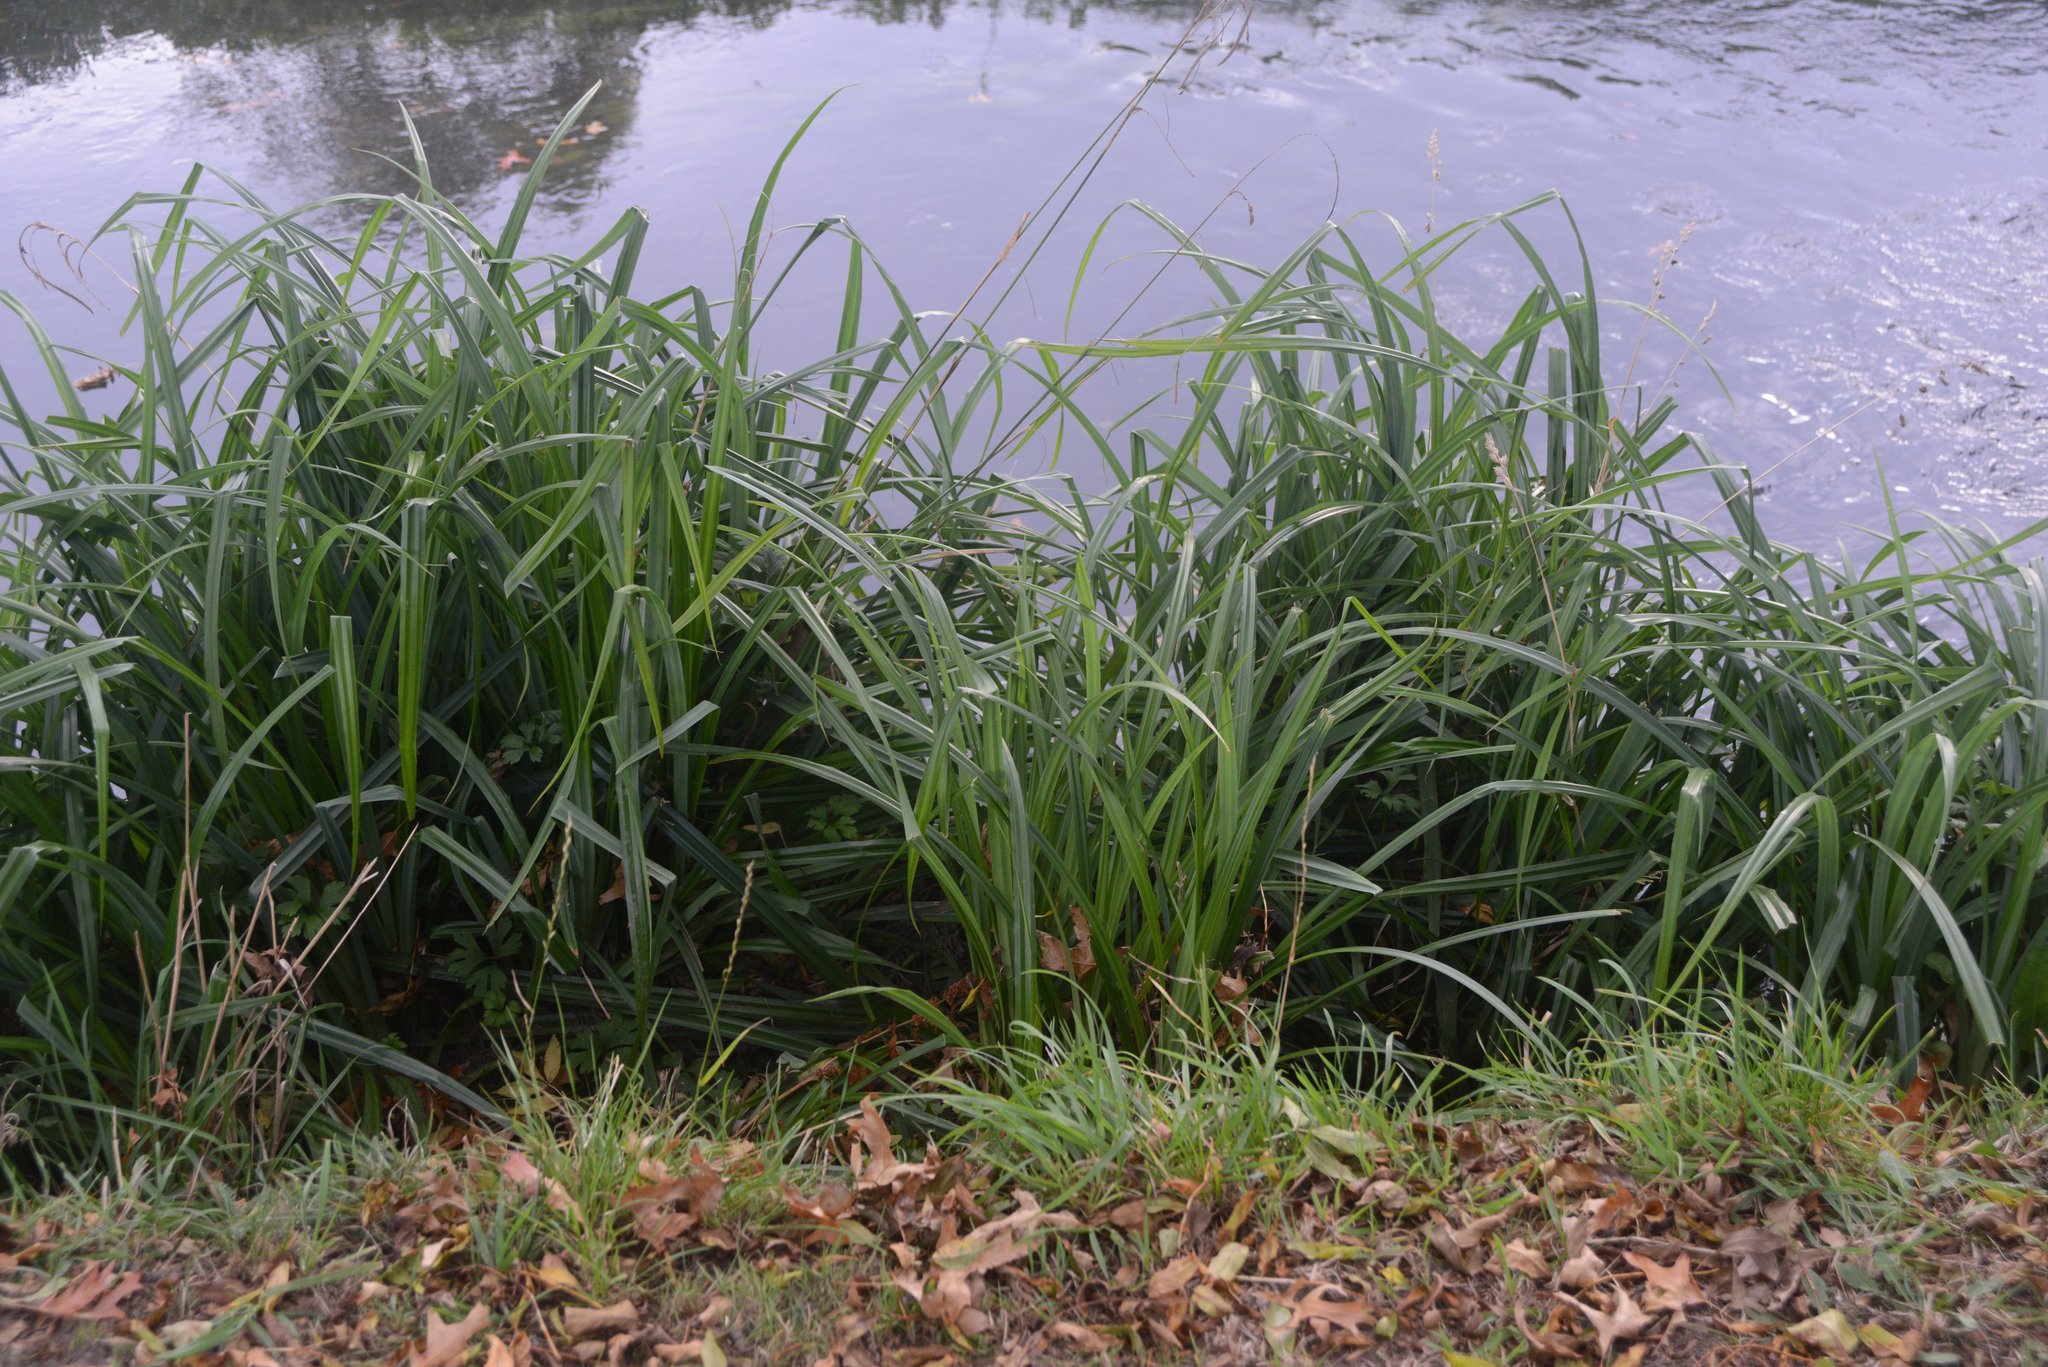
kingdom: Plantae
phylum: Tracheophyta
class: Liliopsida
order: Poales
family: Cyperaceae
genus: Carex
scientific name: Carex pendula
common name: Pendulous sedge
